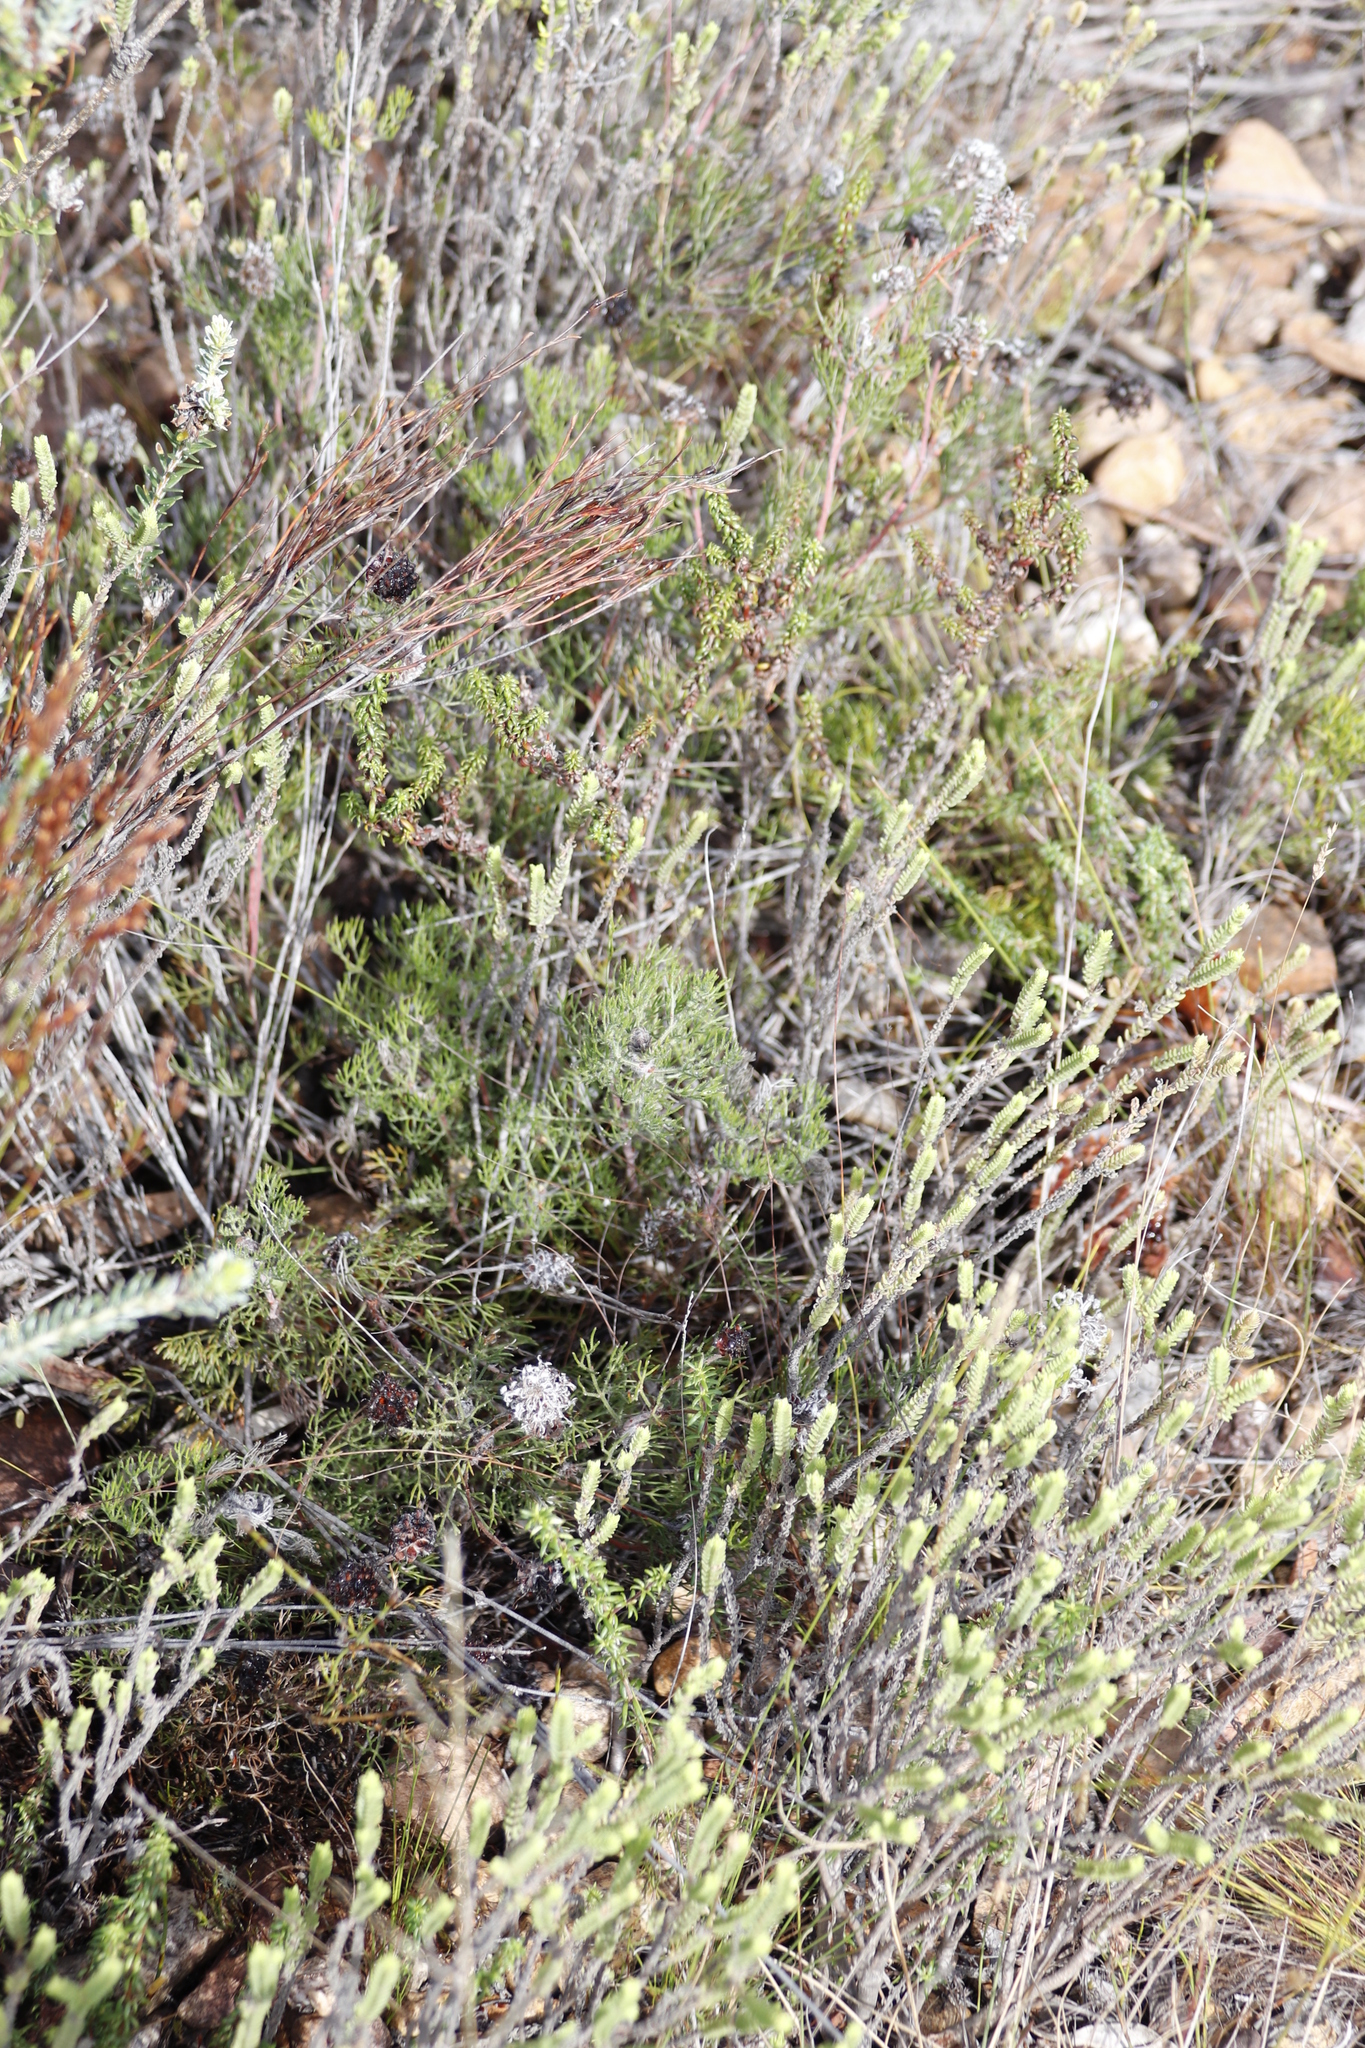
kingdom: Plantae
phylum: Tracheophyta
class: Magnoliopsida
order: Proteales
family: Proteaceae
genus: Serruria
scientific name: Serruria
